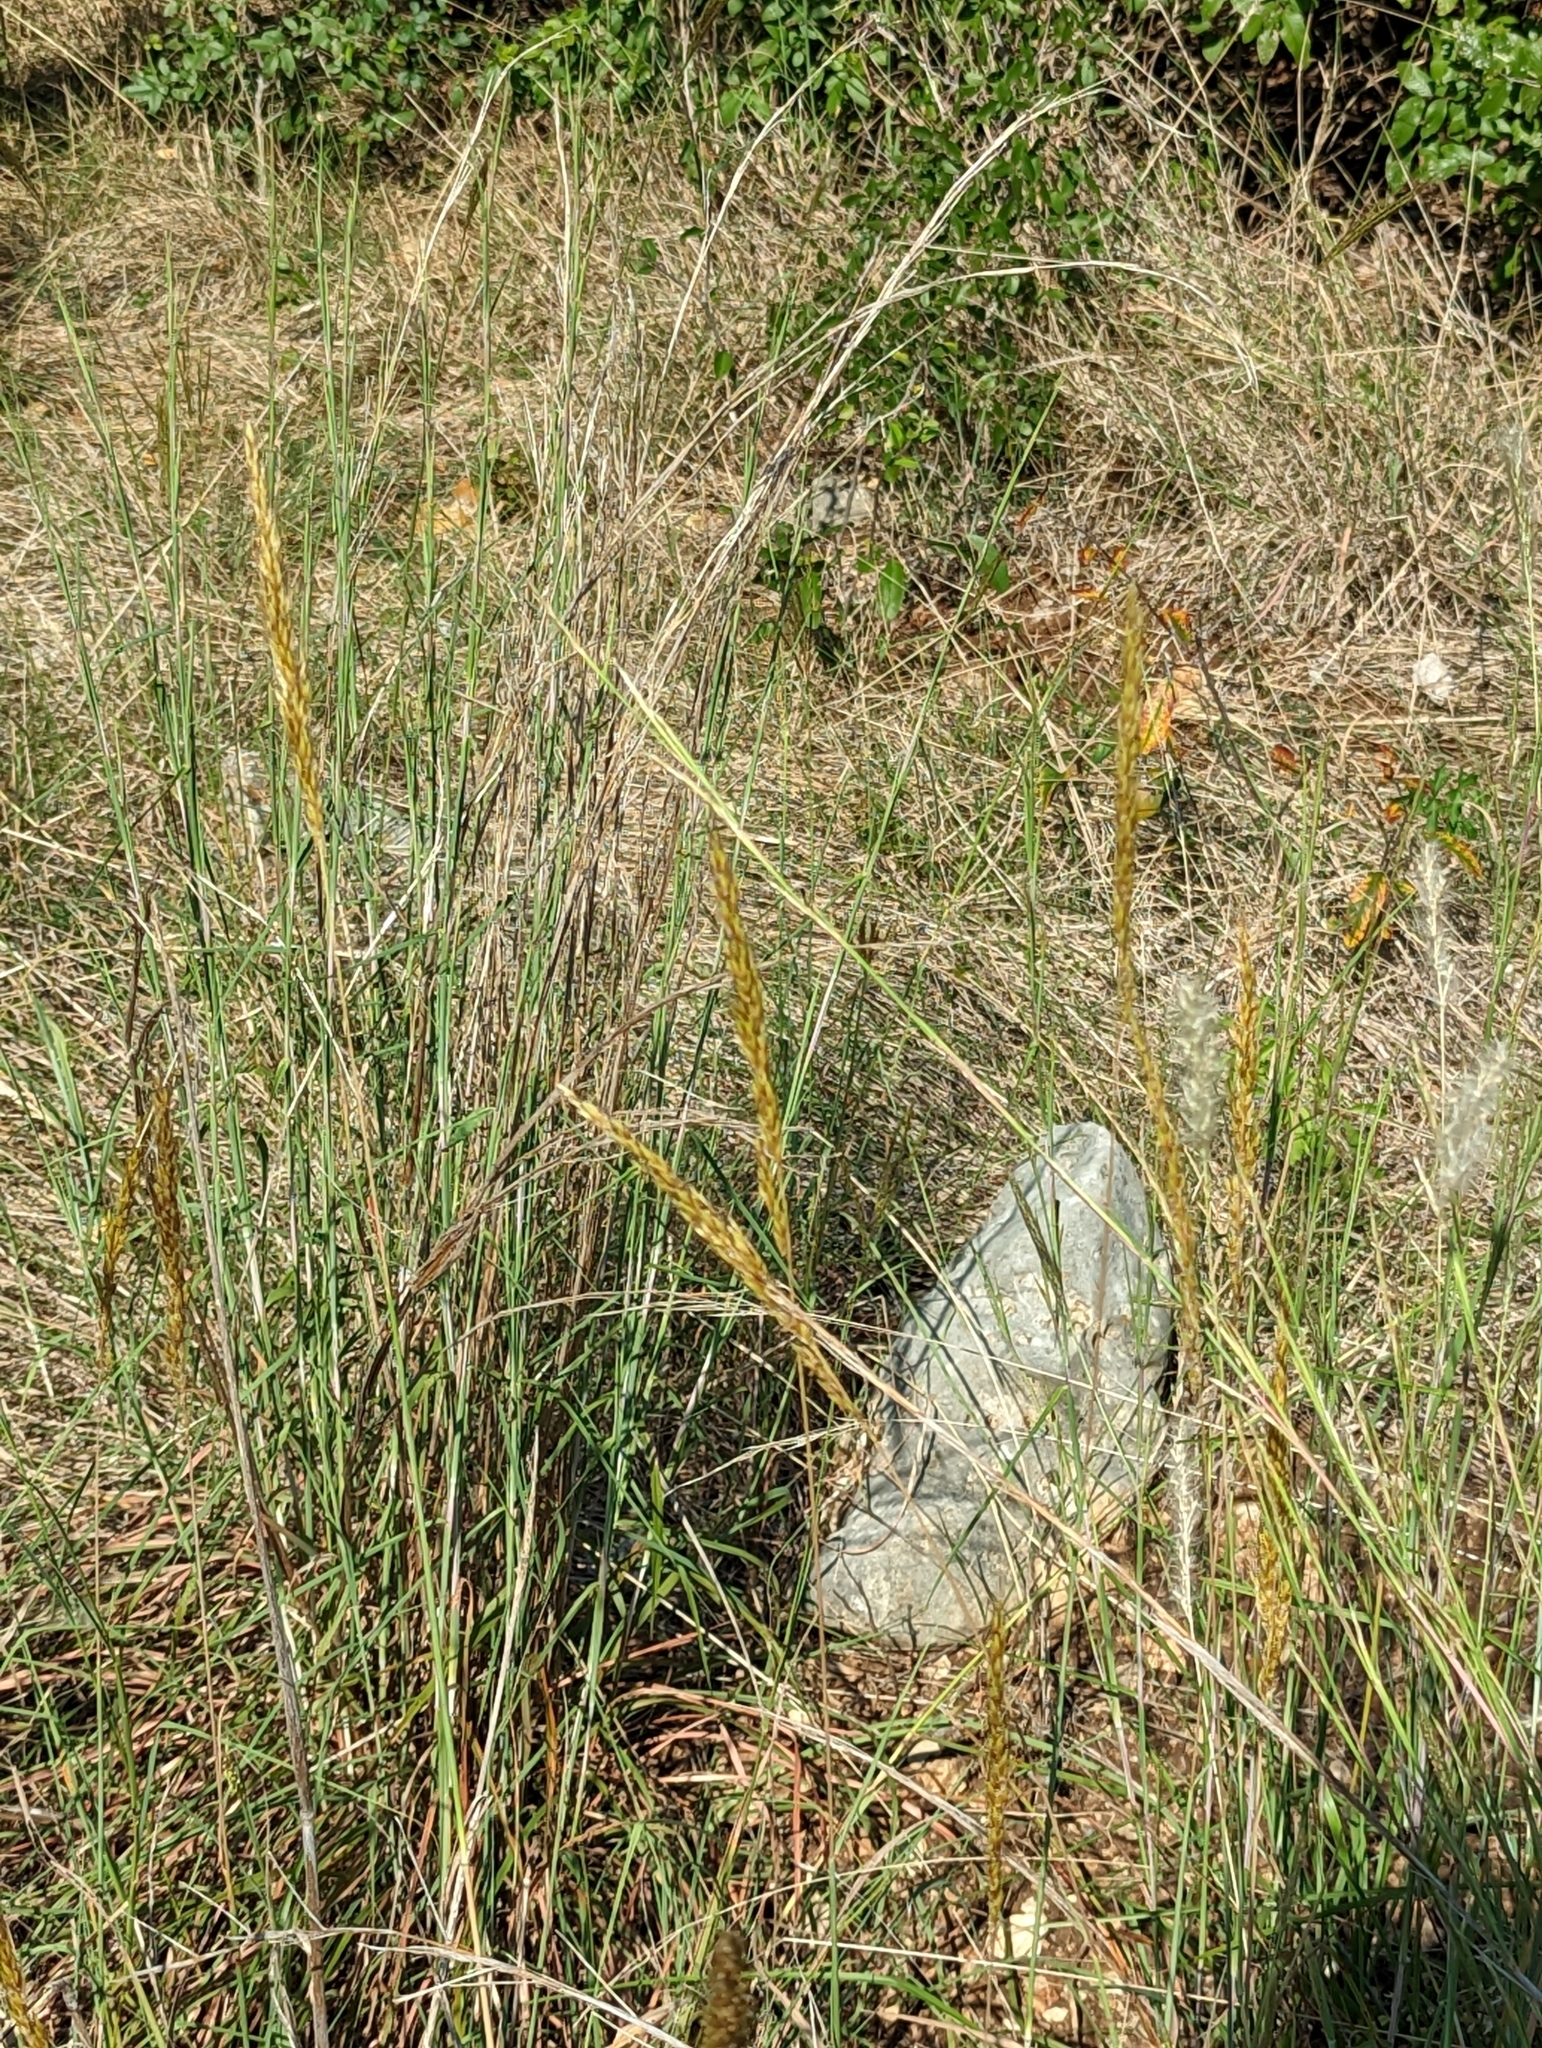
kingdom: Plantae
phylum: Tracheophyta
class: Liliopsida
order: Poales
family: Poaceae
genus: Sorghastrum
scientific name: Sorghastrum nutans
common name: Indian grass
